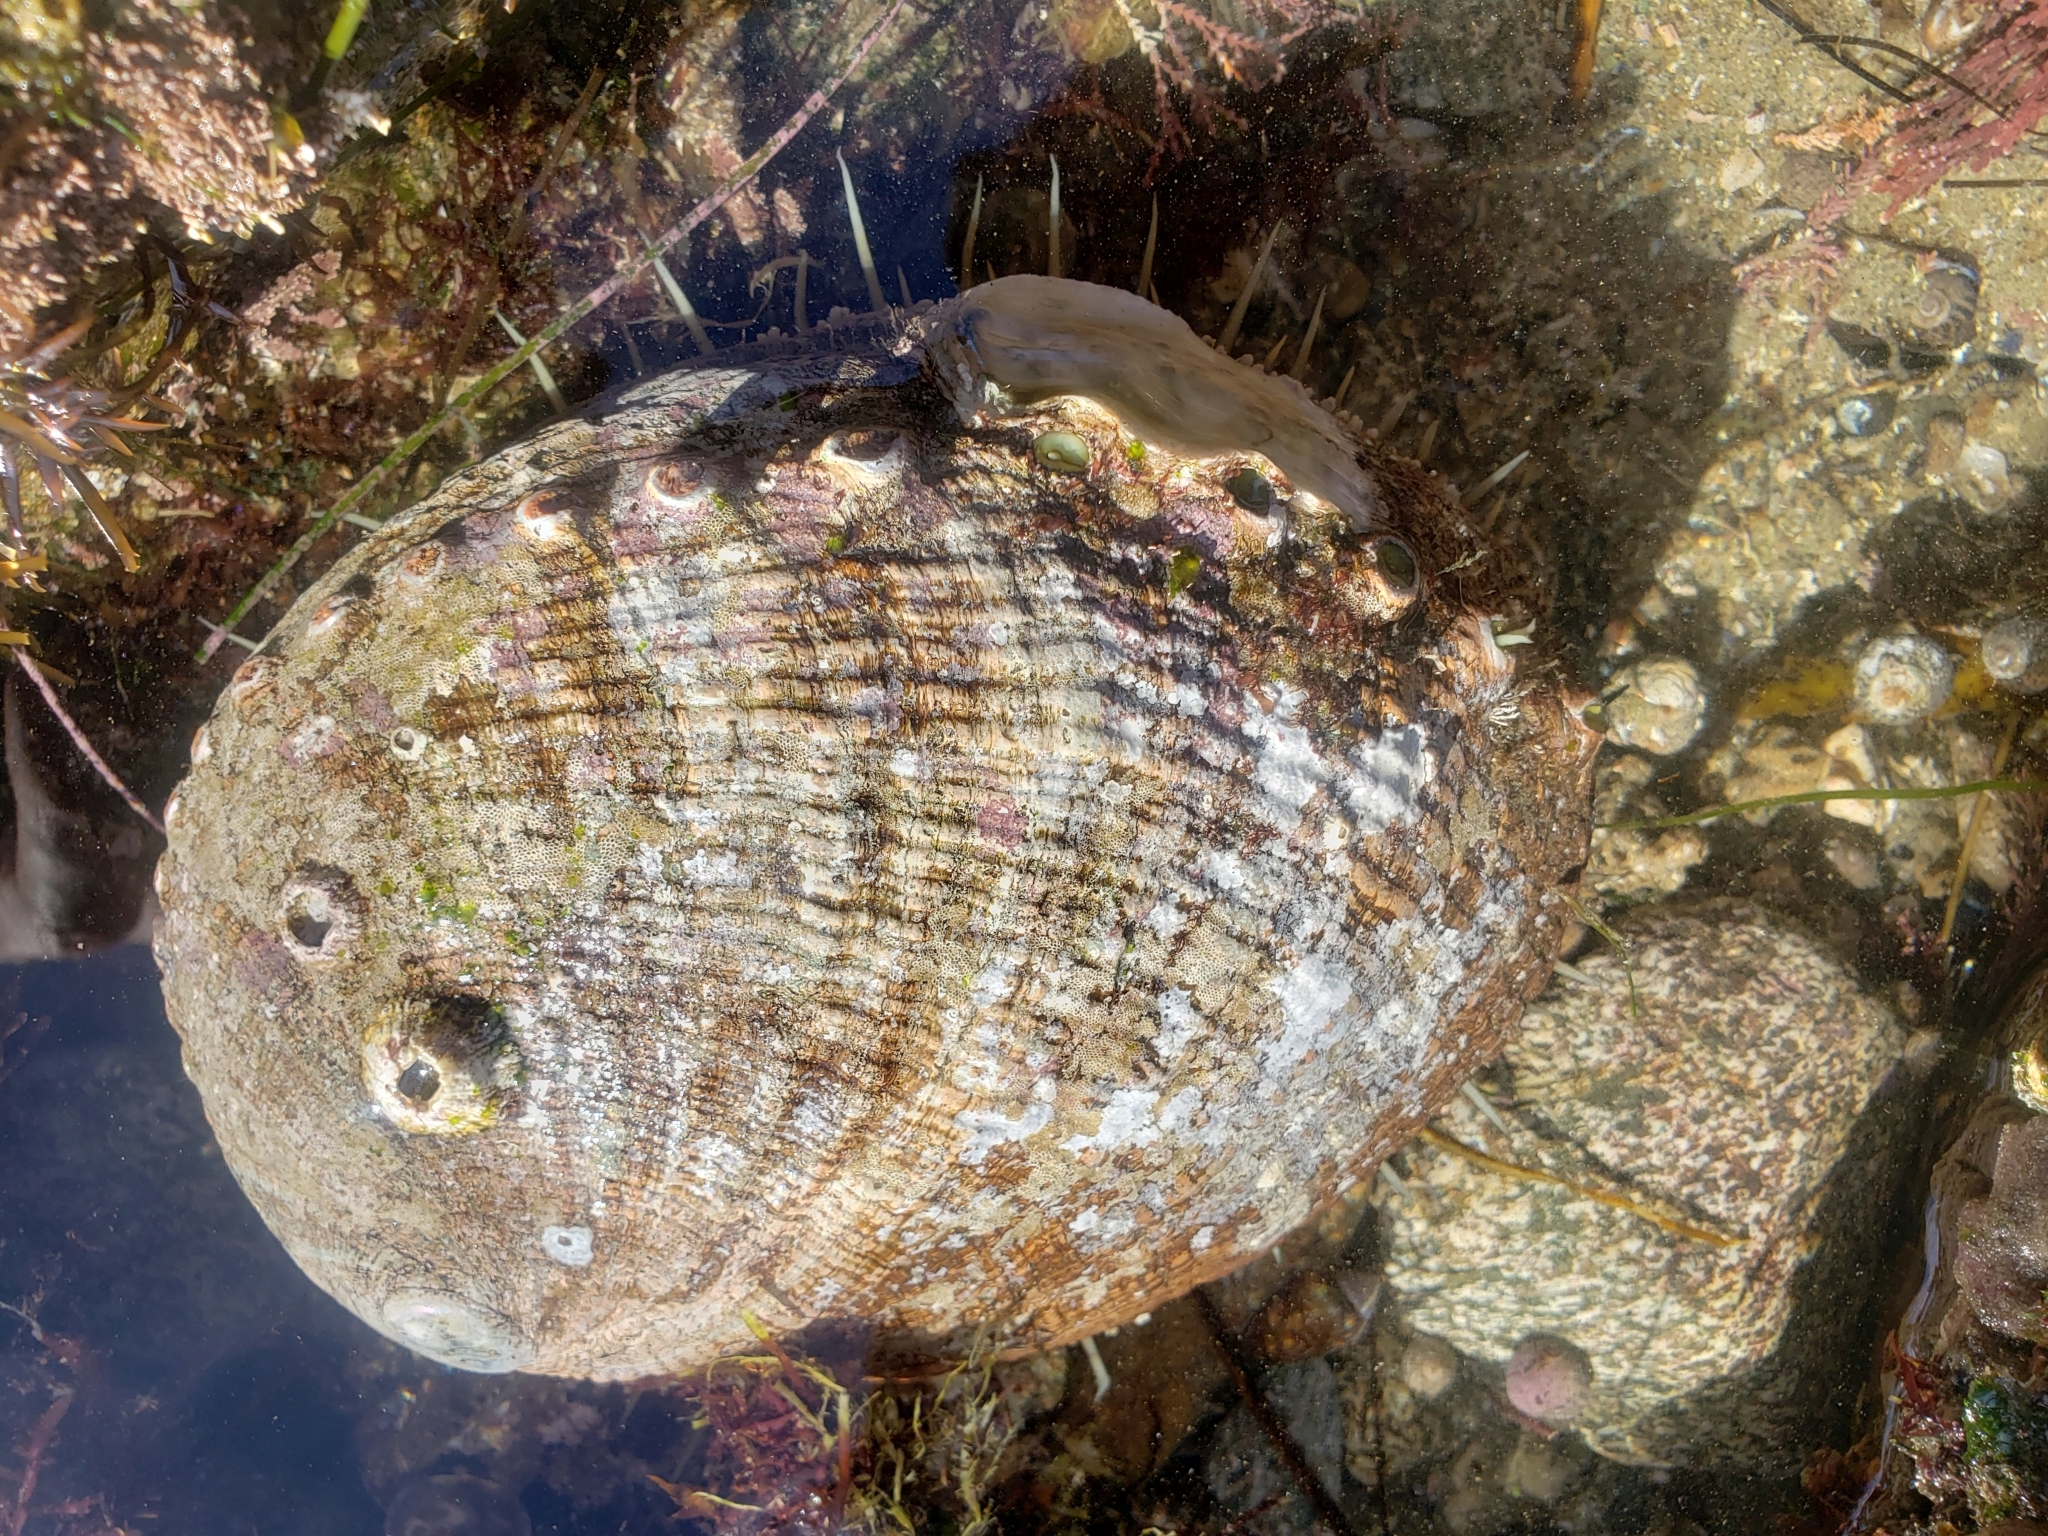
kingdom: Animalia
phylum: Mollusca
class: Gastropoda
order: Lepetellida
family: Haliotidae
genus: Haliotis
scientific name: Haliotis fulgens
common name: Green abalone
